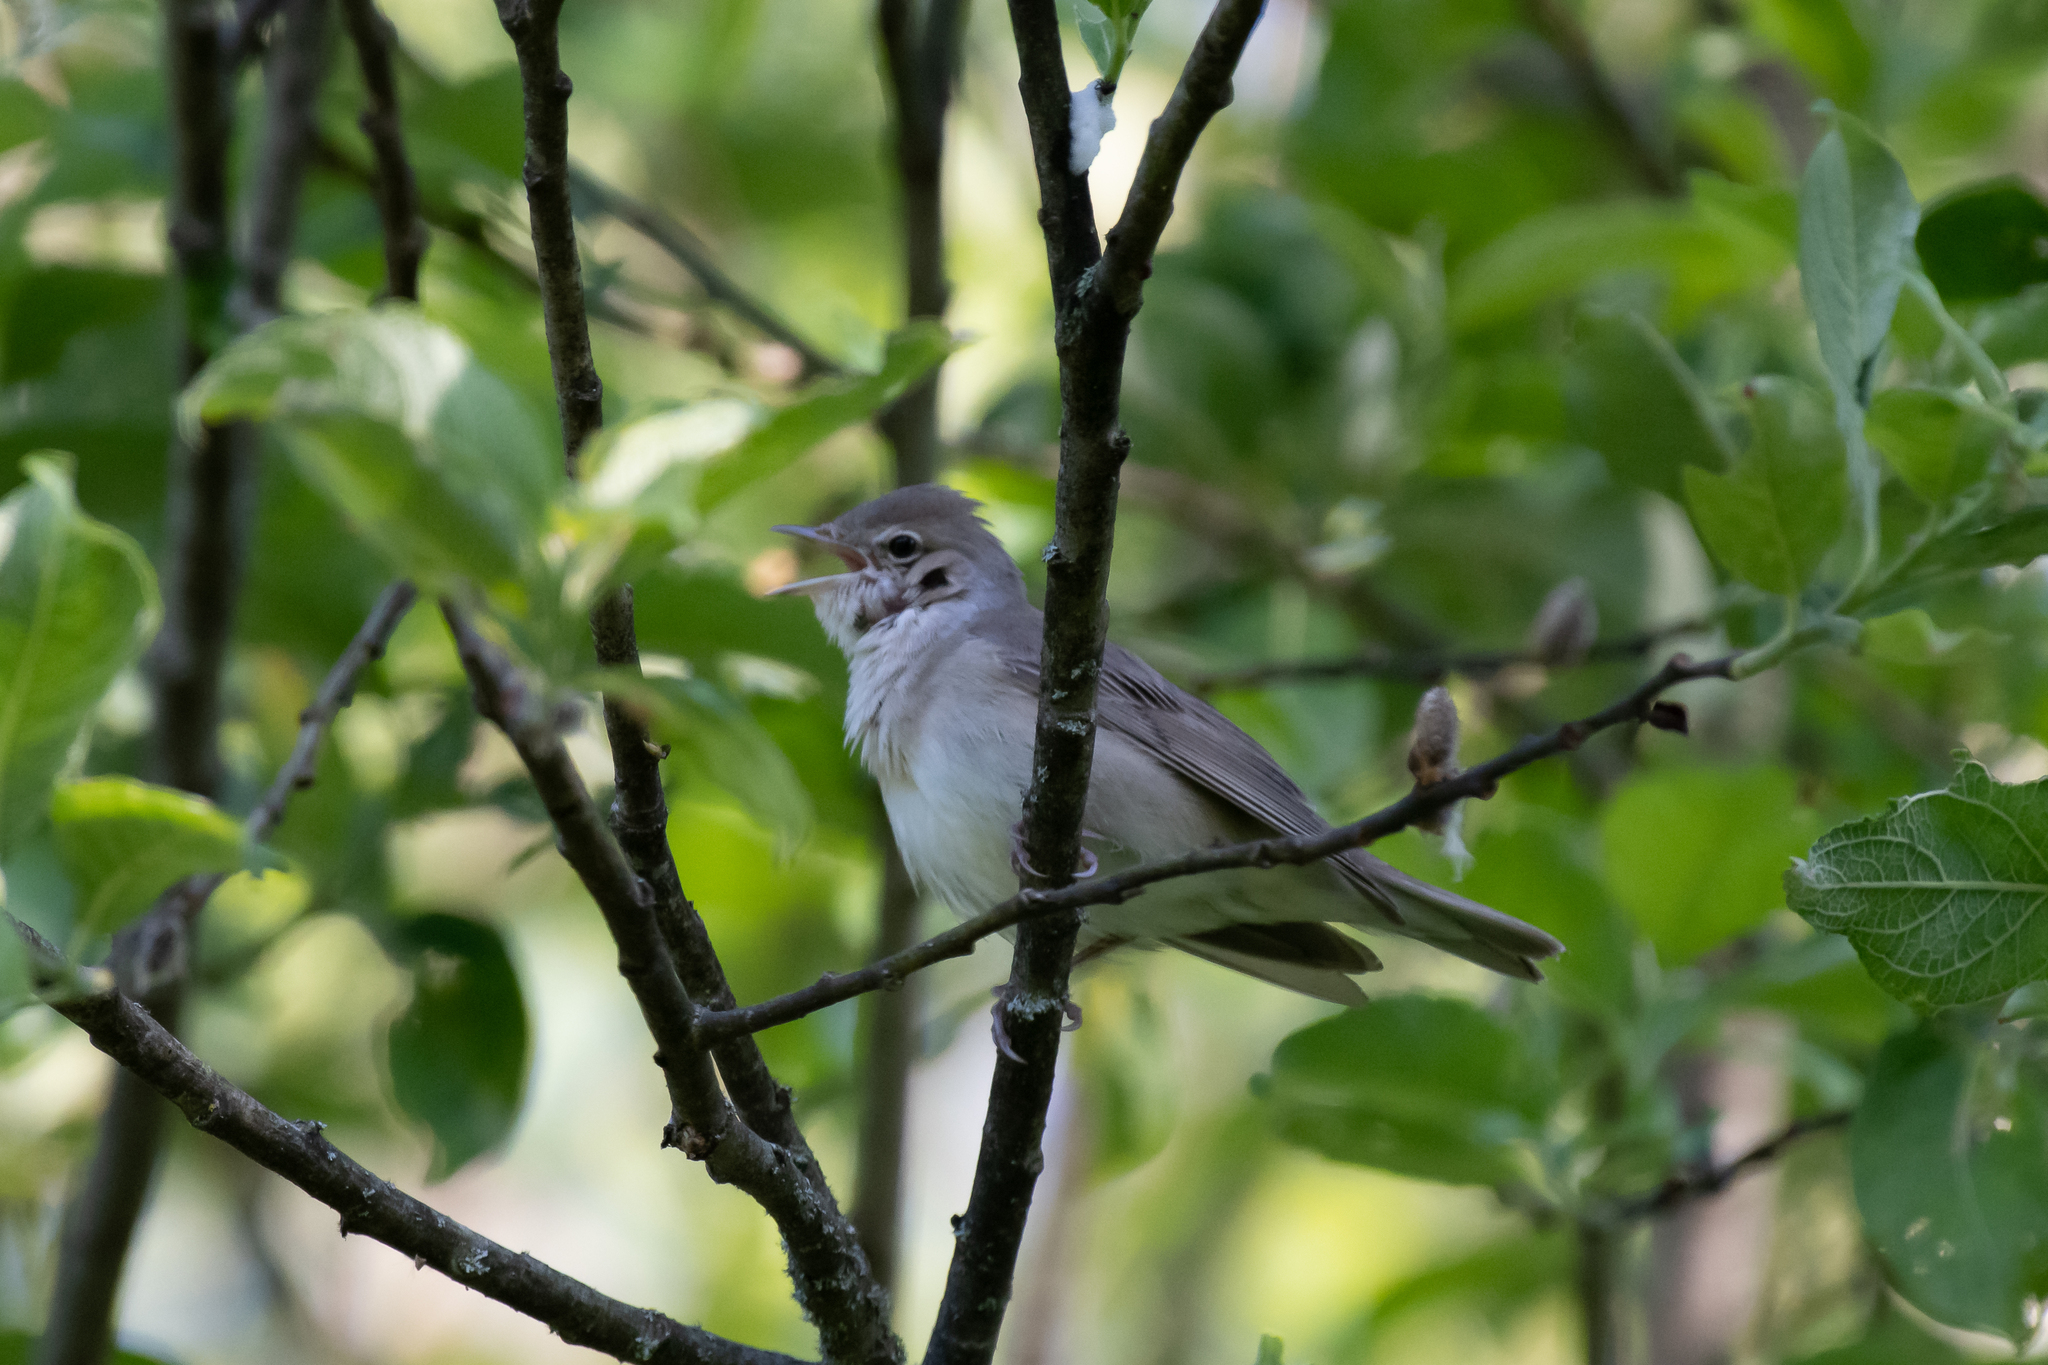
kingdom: Animalia
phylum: Chordata
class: Aves
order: Passeriformes
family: Sylviidae
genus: Sylvia
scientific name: Sylvia borin
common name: Garden warbler
